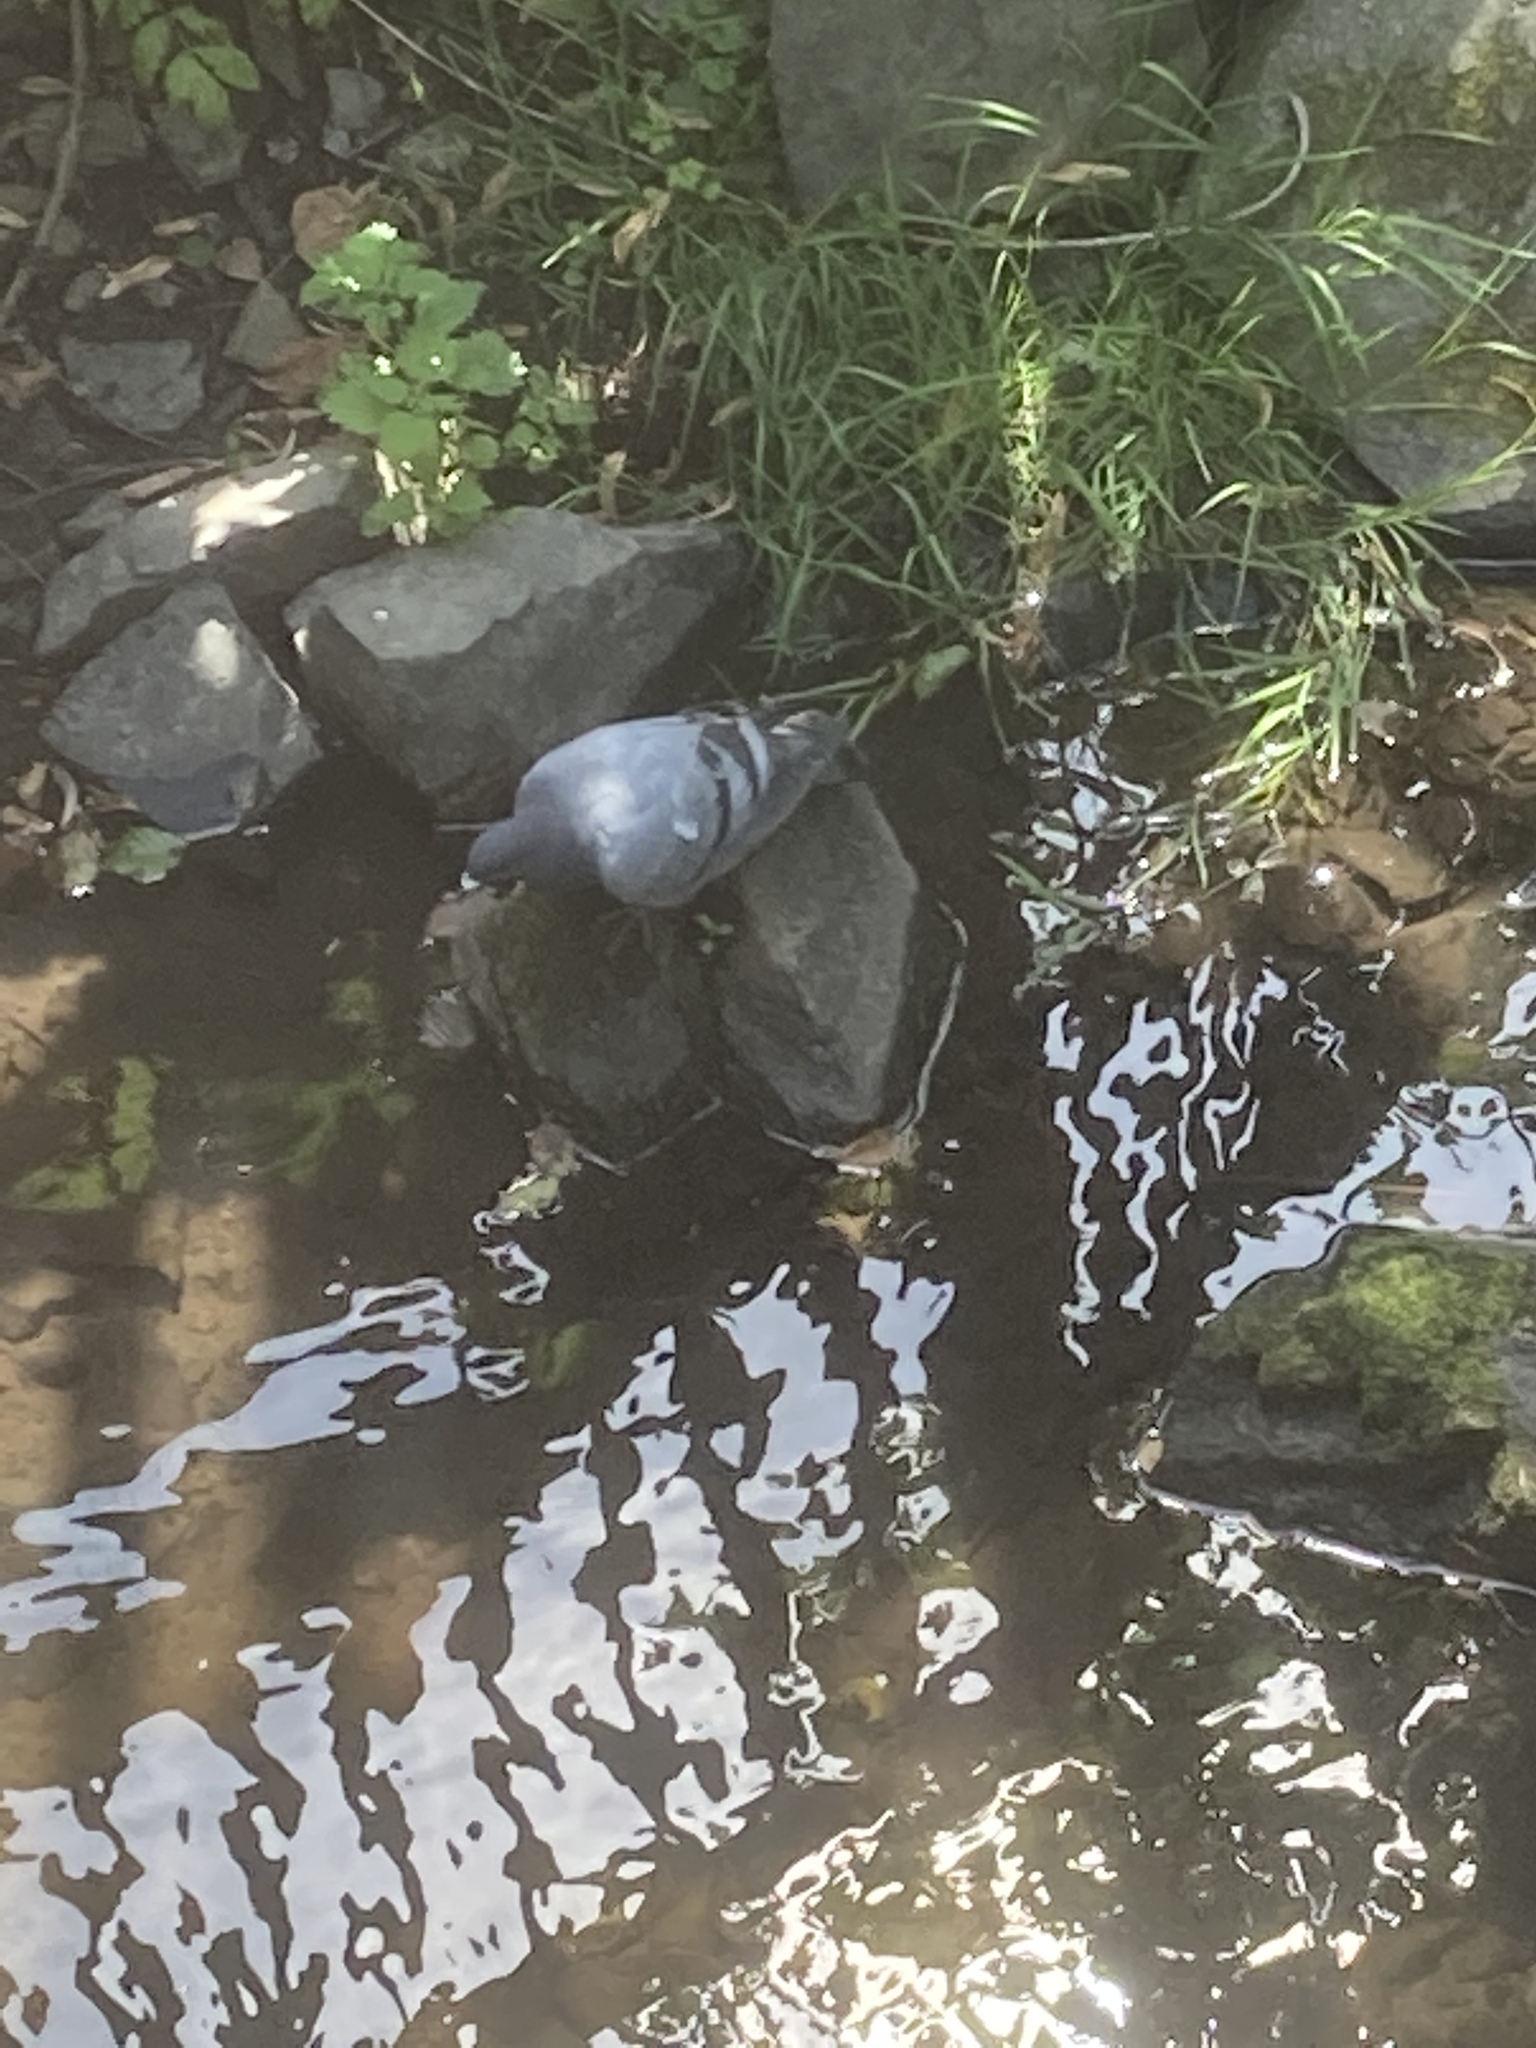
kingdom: Animalia
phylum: Chordata
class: Aves
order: Columbiformes
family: Columbidae
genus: Columba
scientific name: Columba livia
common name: Rock pigeon
